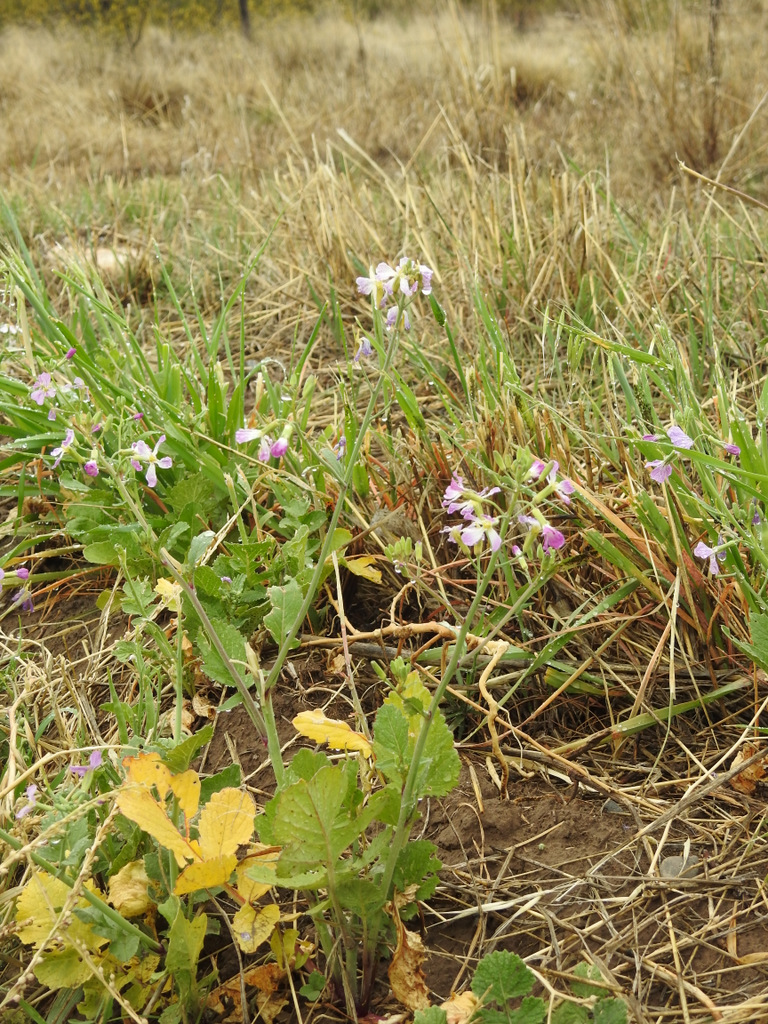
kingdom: Plantae
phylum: Tracheophyta
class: Magnoliopsida
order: Brassicales
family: Brassicaceae
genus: Raphanus
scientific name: Raphanus sativus
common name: Cultivated radish
